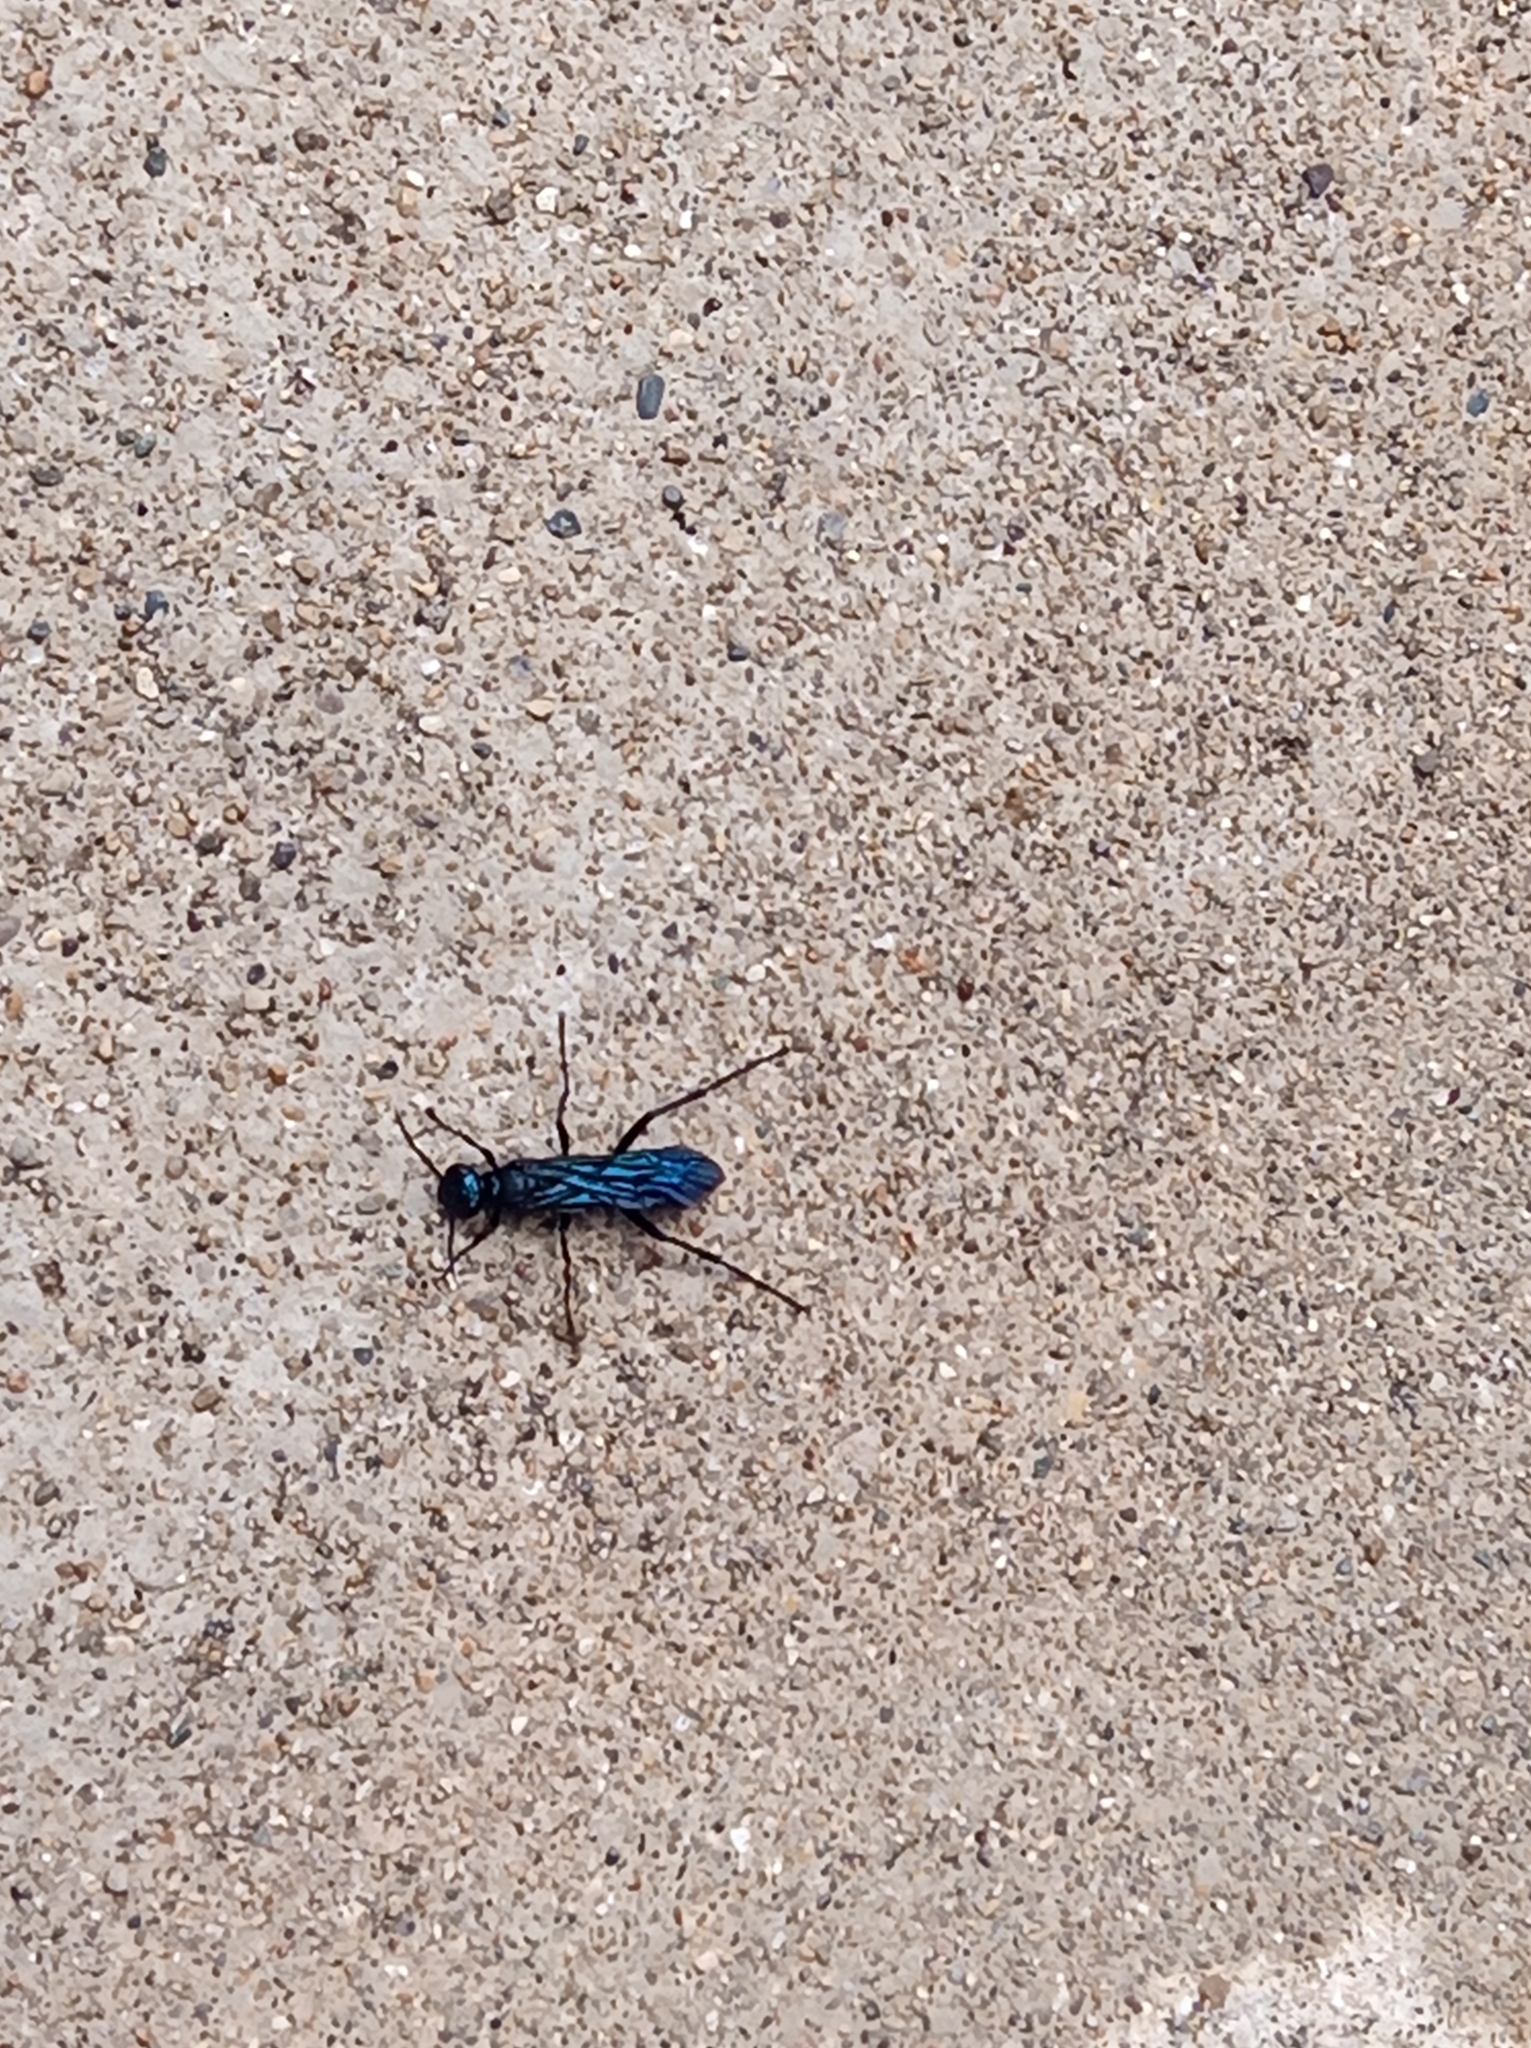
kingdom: Animalia
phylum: Arthropoda
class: Insecta
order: Hymenoptera
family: Sphecidae
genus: Chalybion
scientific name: Chalybion californicum
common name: Mud dauber
